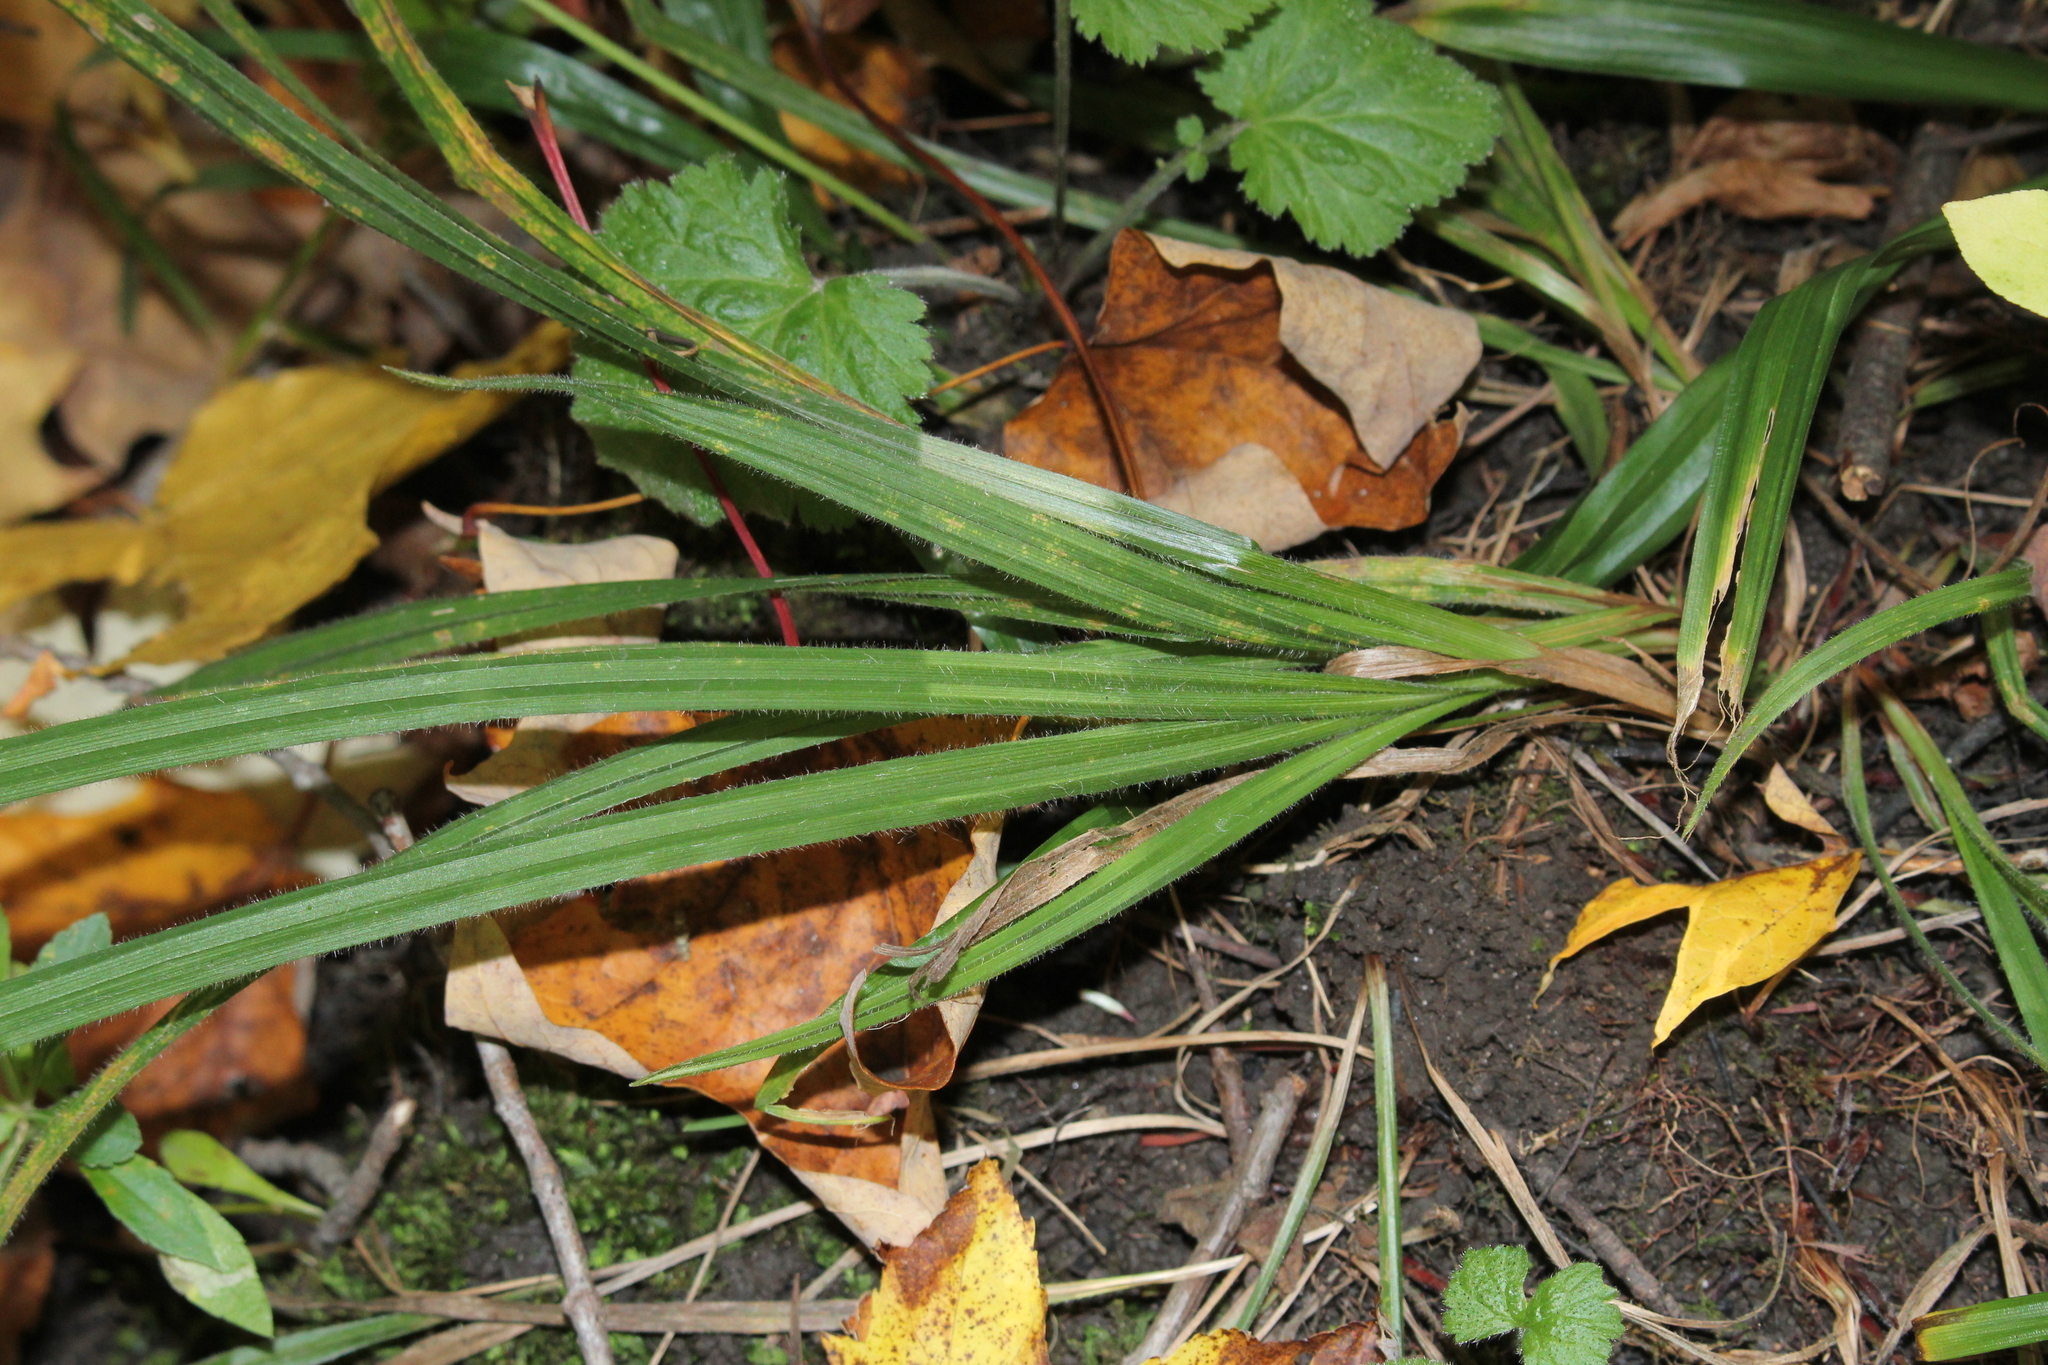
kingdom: Plantae
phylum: Tracheophyta
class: Liliopsida
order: Poales
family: Cyperaceae
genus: Carex
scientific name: Carex hirtifolia
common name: Hairy sedge
